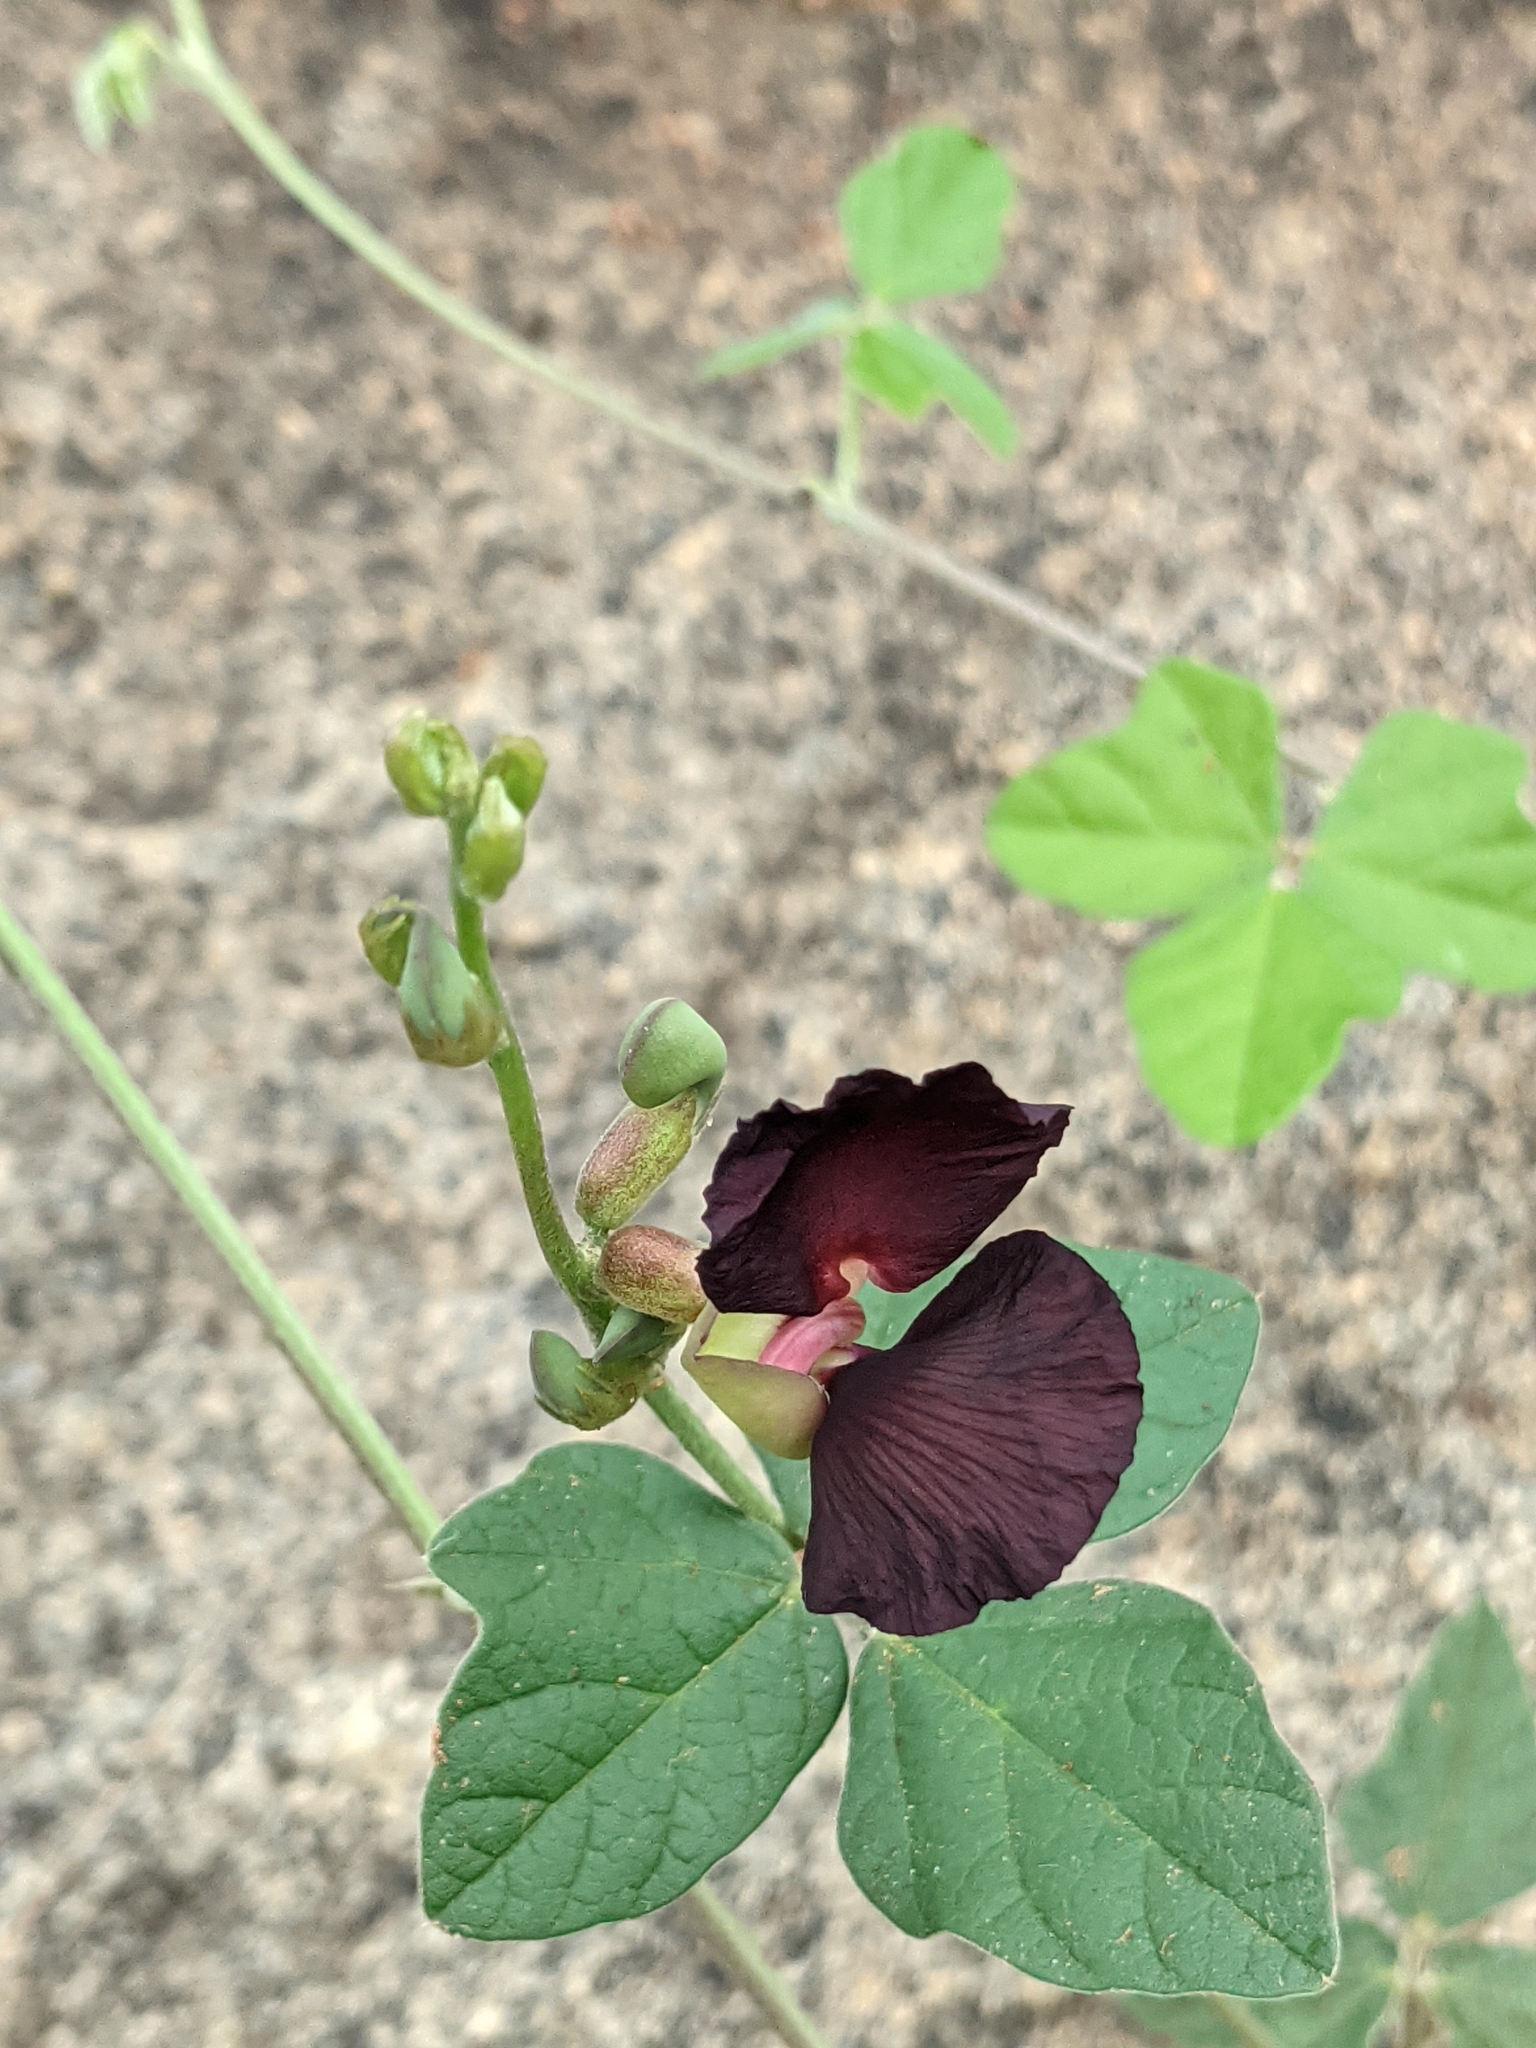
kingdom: Plantae
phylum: Tracheophyta
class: Magnoliopsida
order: Fabales
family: Fabaceae
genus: Macroptilium
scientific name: Macroptilium atropurpureum
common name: Purple bushbean
